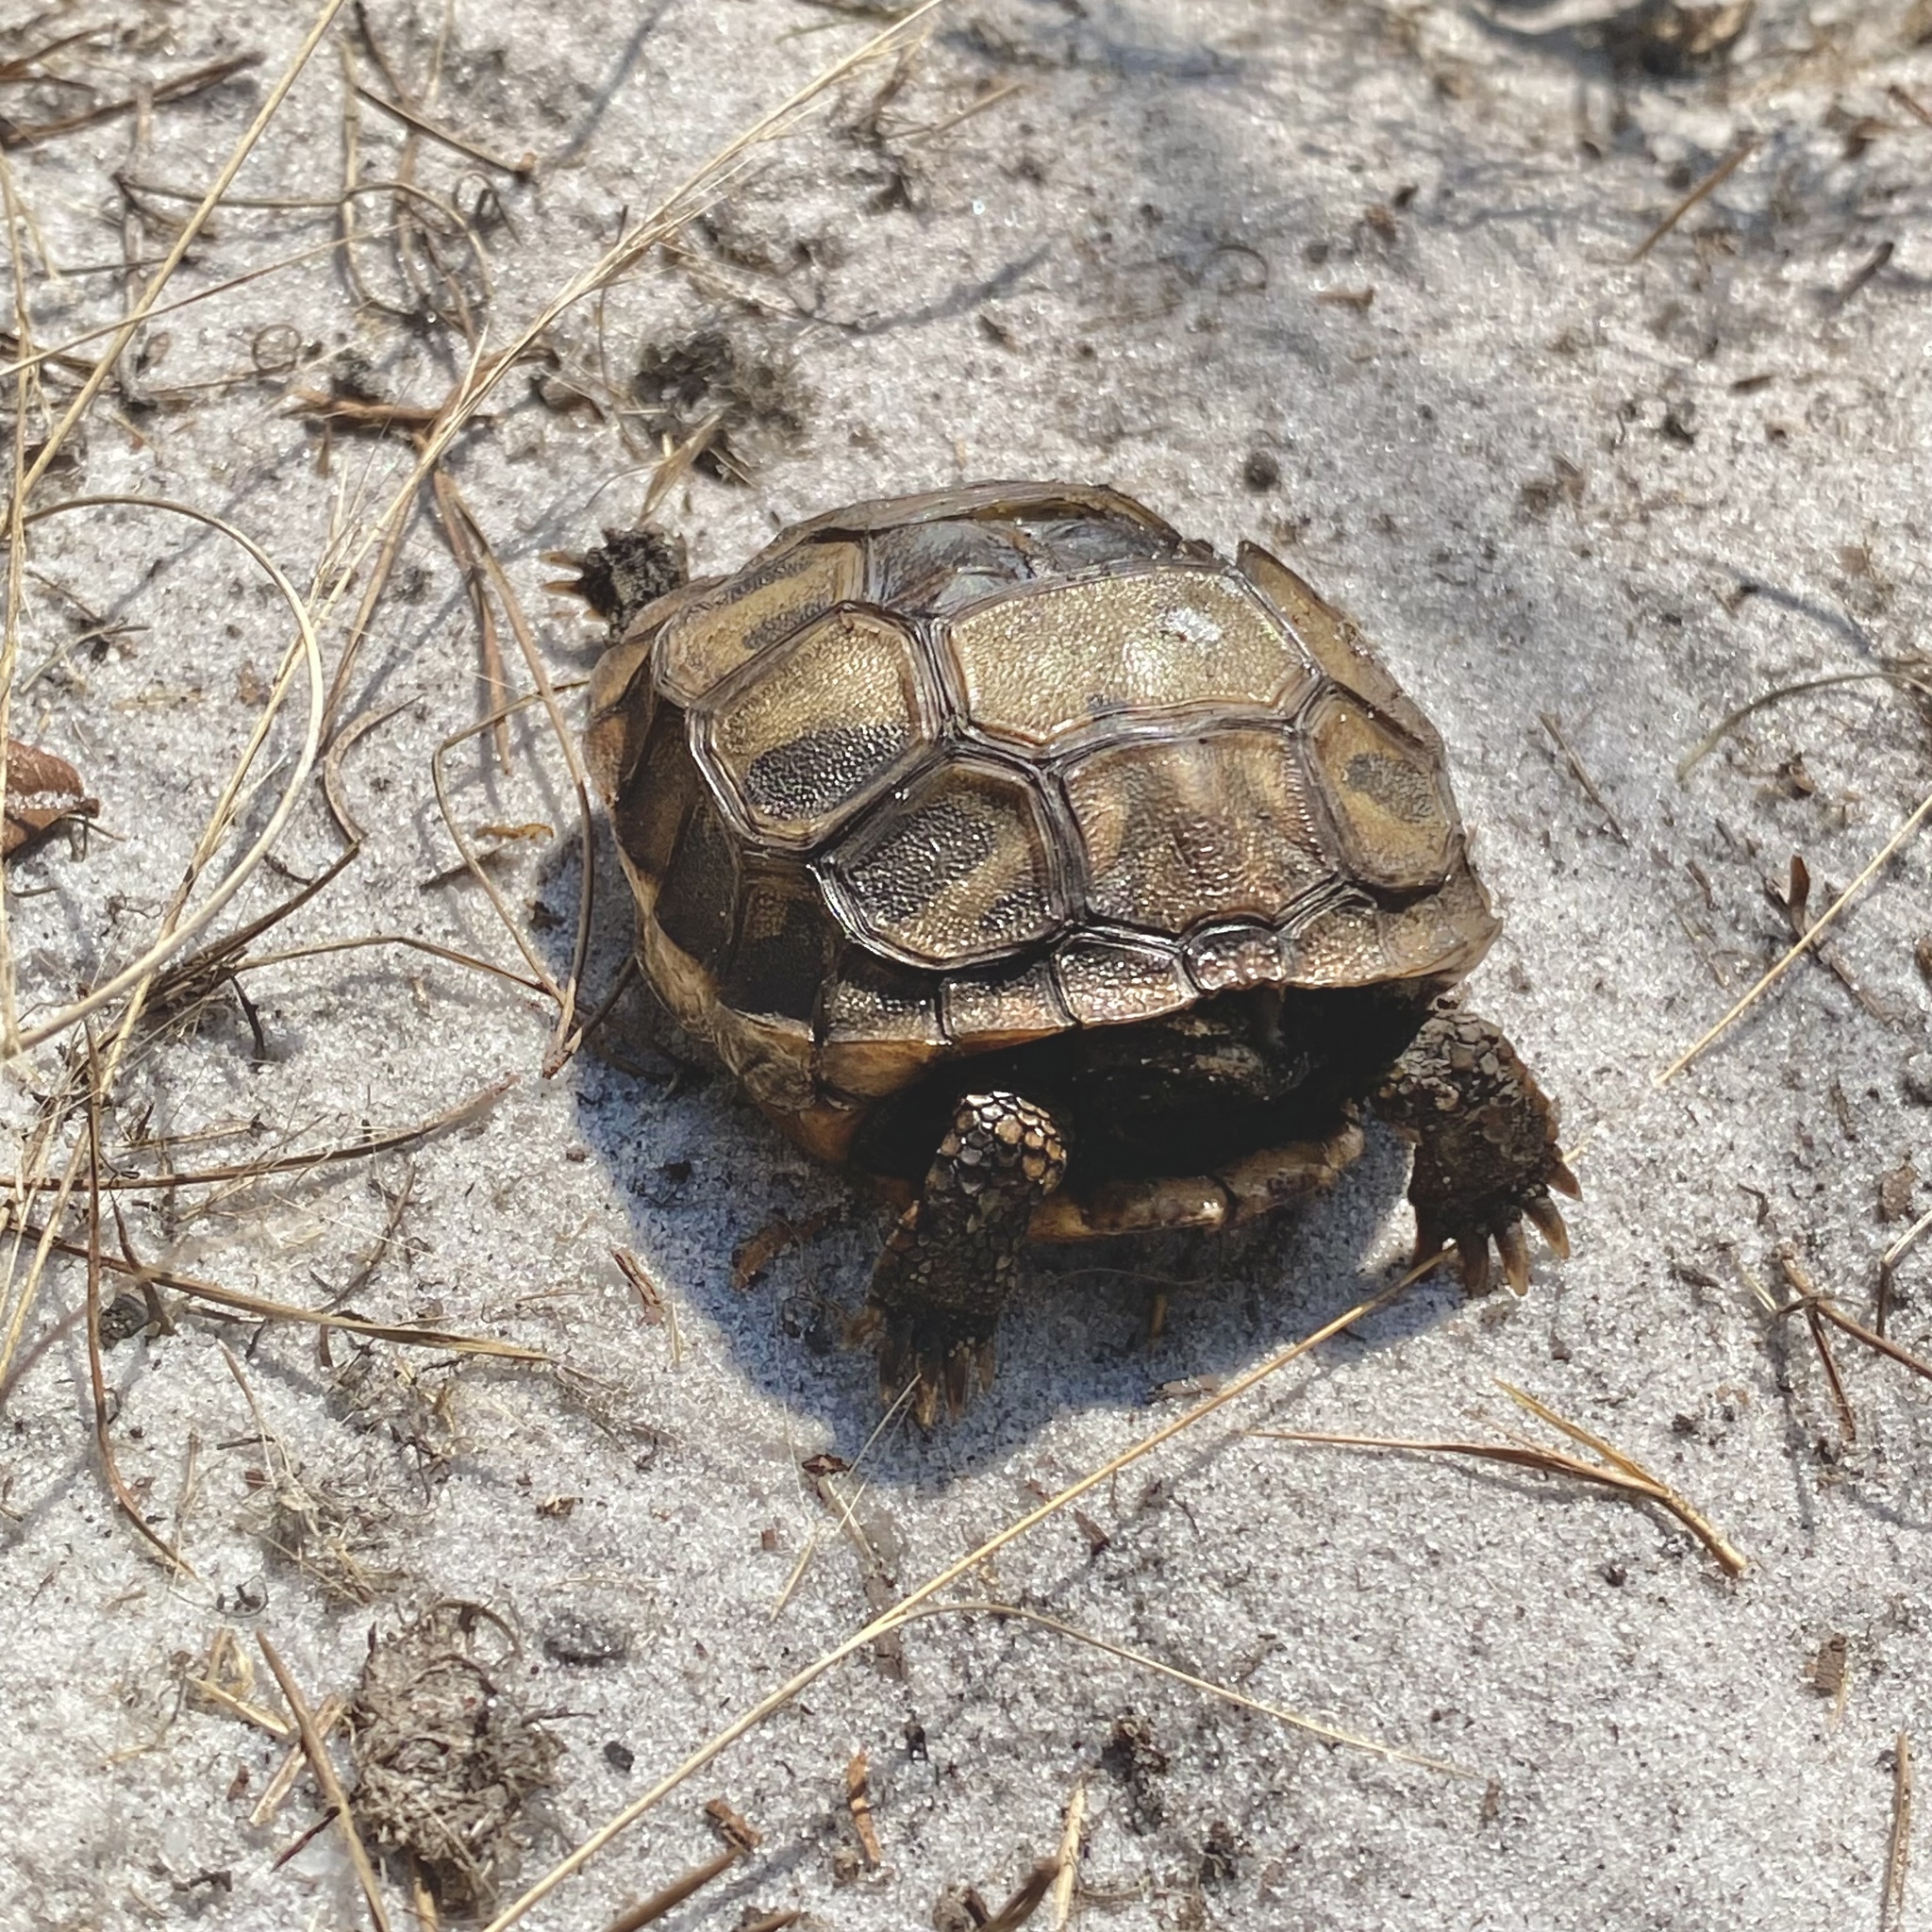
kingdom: Animalia
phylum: Chordata
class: Testudines
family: Testudinidae
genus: Gopherus
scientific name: Gopherus polyphemus
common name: Florida gopher tortoise
